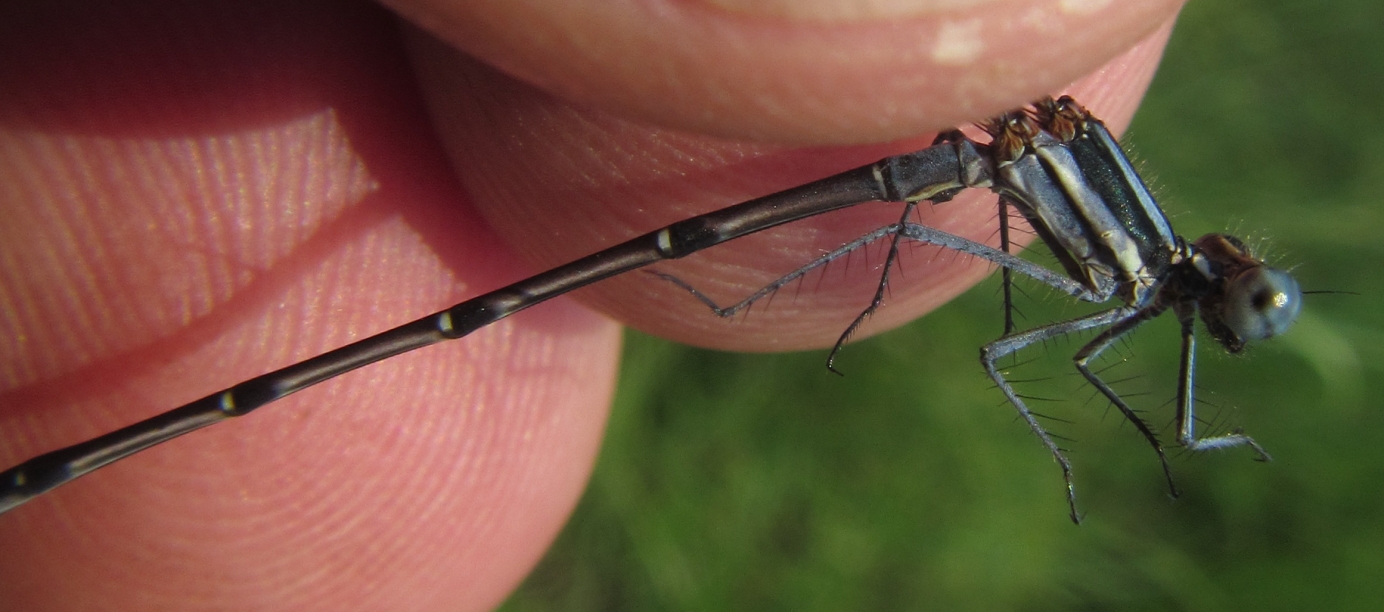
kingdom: Animalia
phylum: Arthropoda
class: Insecta
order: Odonata
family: Platycnemididae
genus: Elattoneura
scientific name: Elattoneura glauca
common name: Common threadtail
